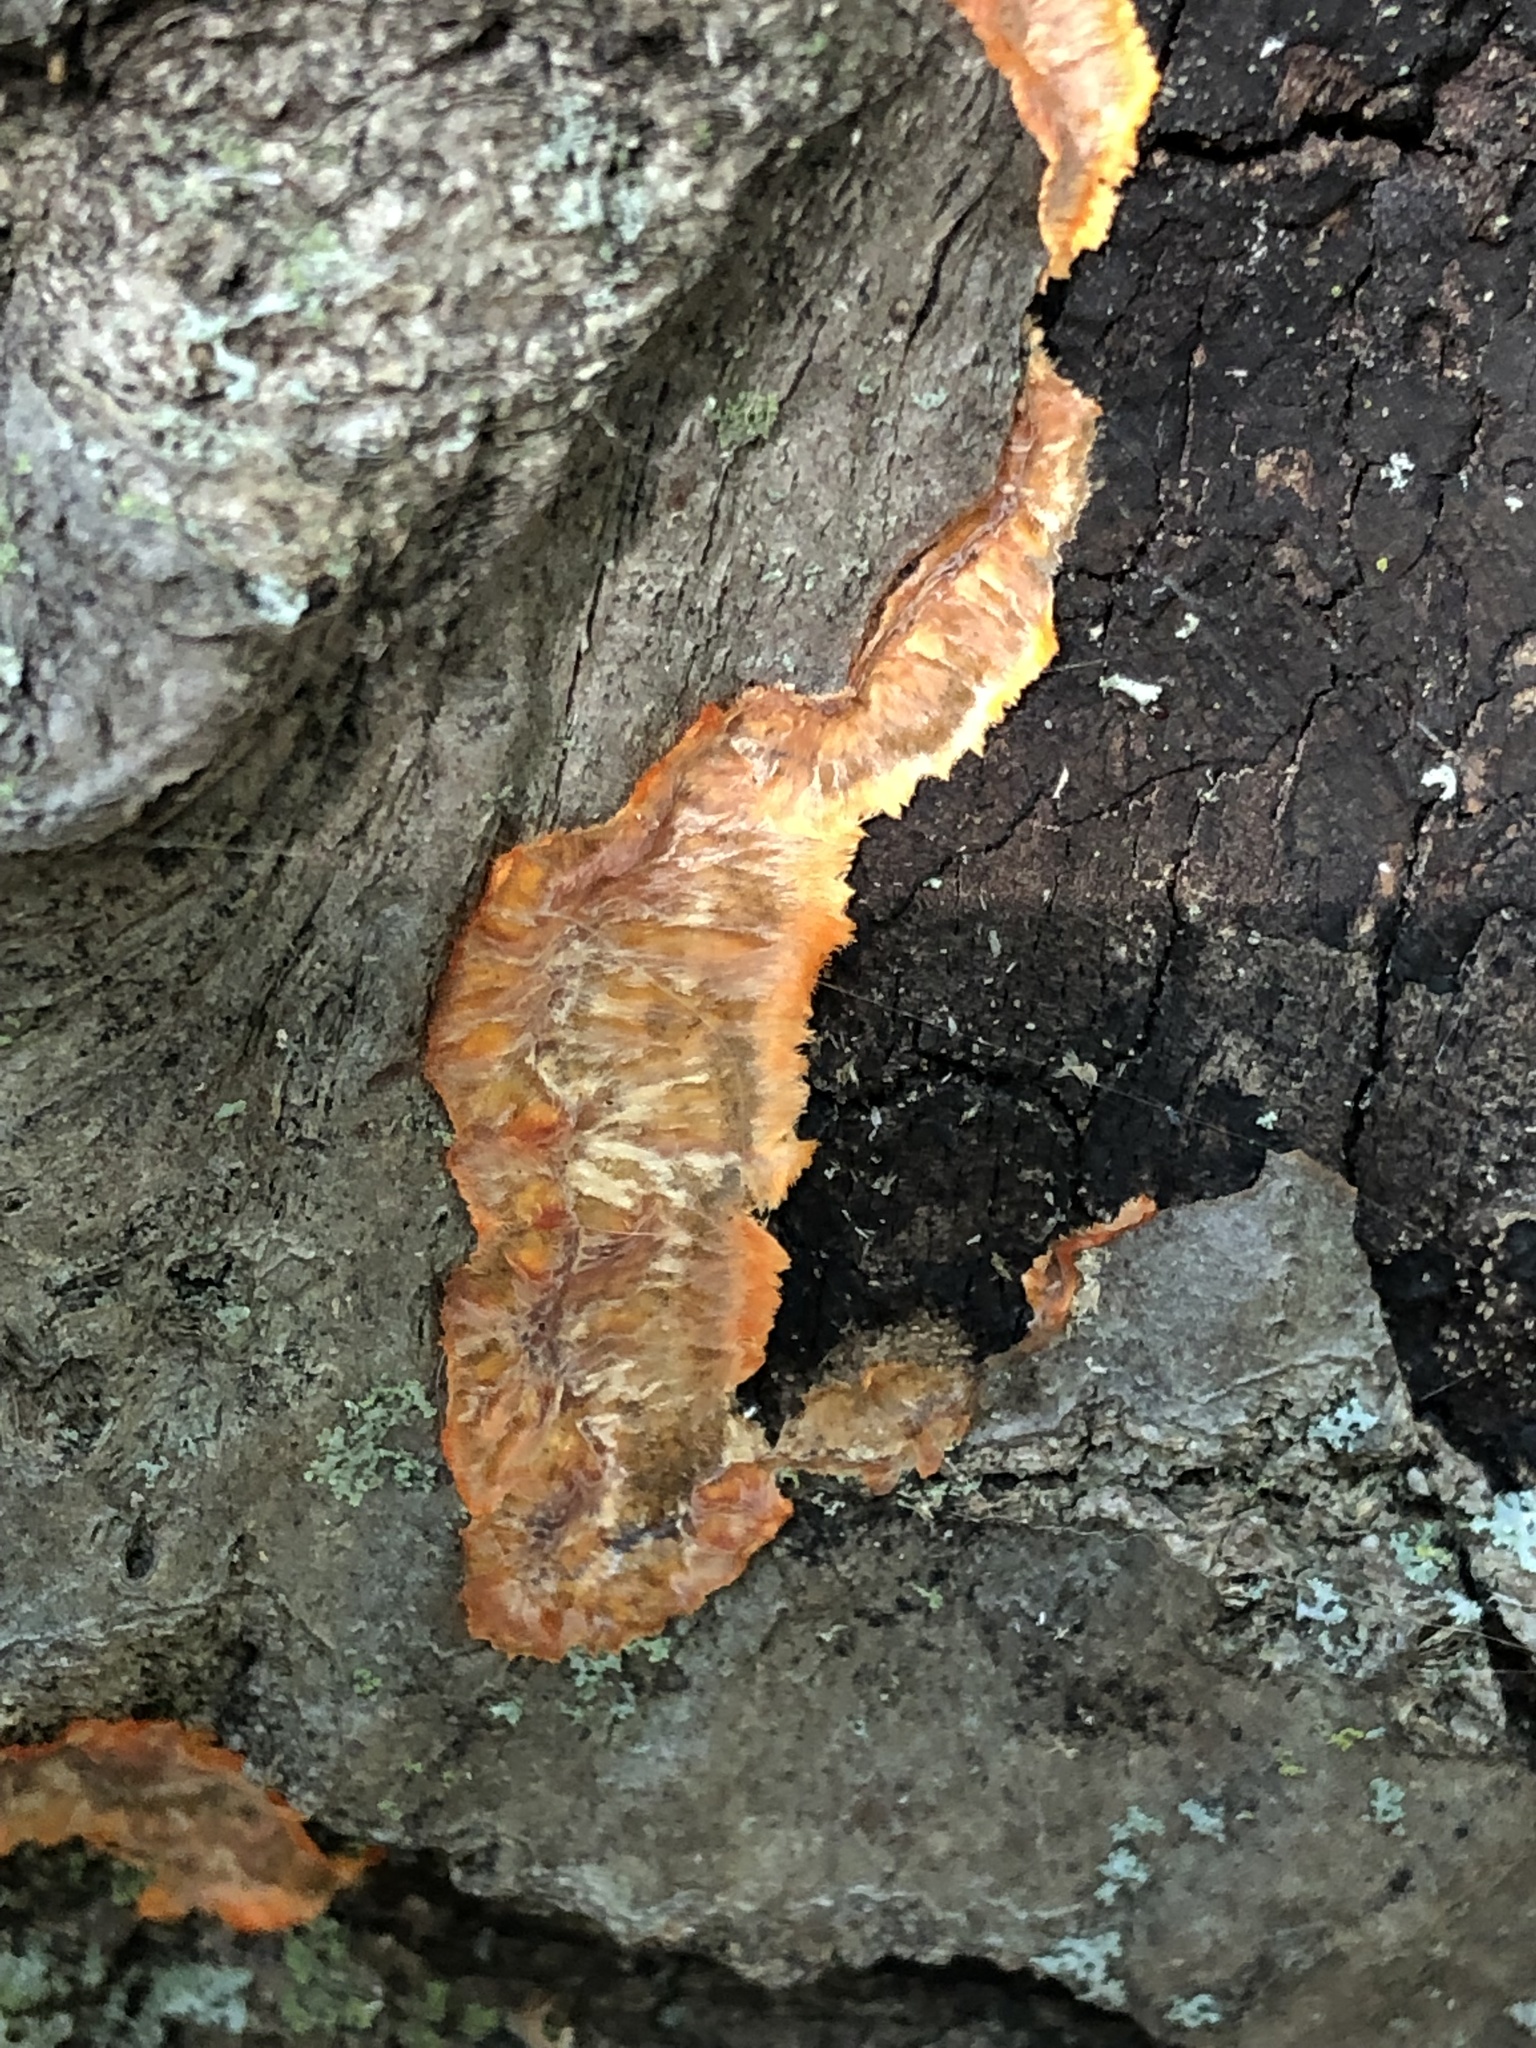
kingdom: Fungi
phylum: Basidiomycota
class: Agaricomycetes
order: Polyporales
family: Meruliaceae
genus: Phlebia
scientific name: Phlebia radiata
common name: Wrinkled crust
